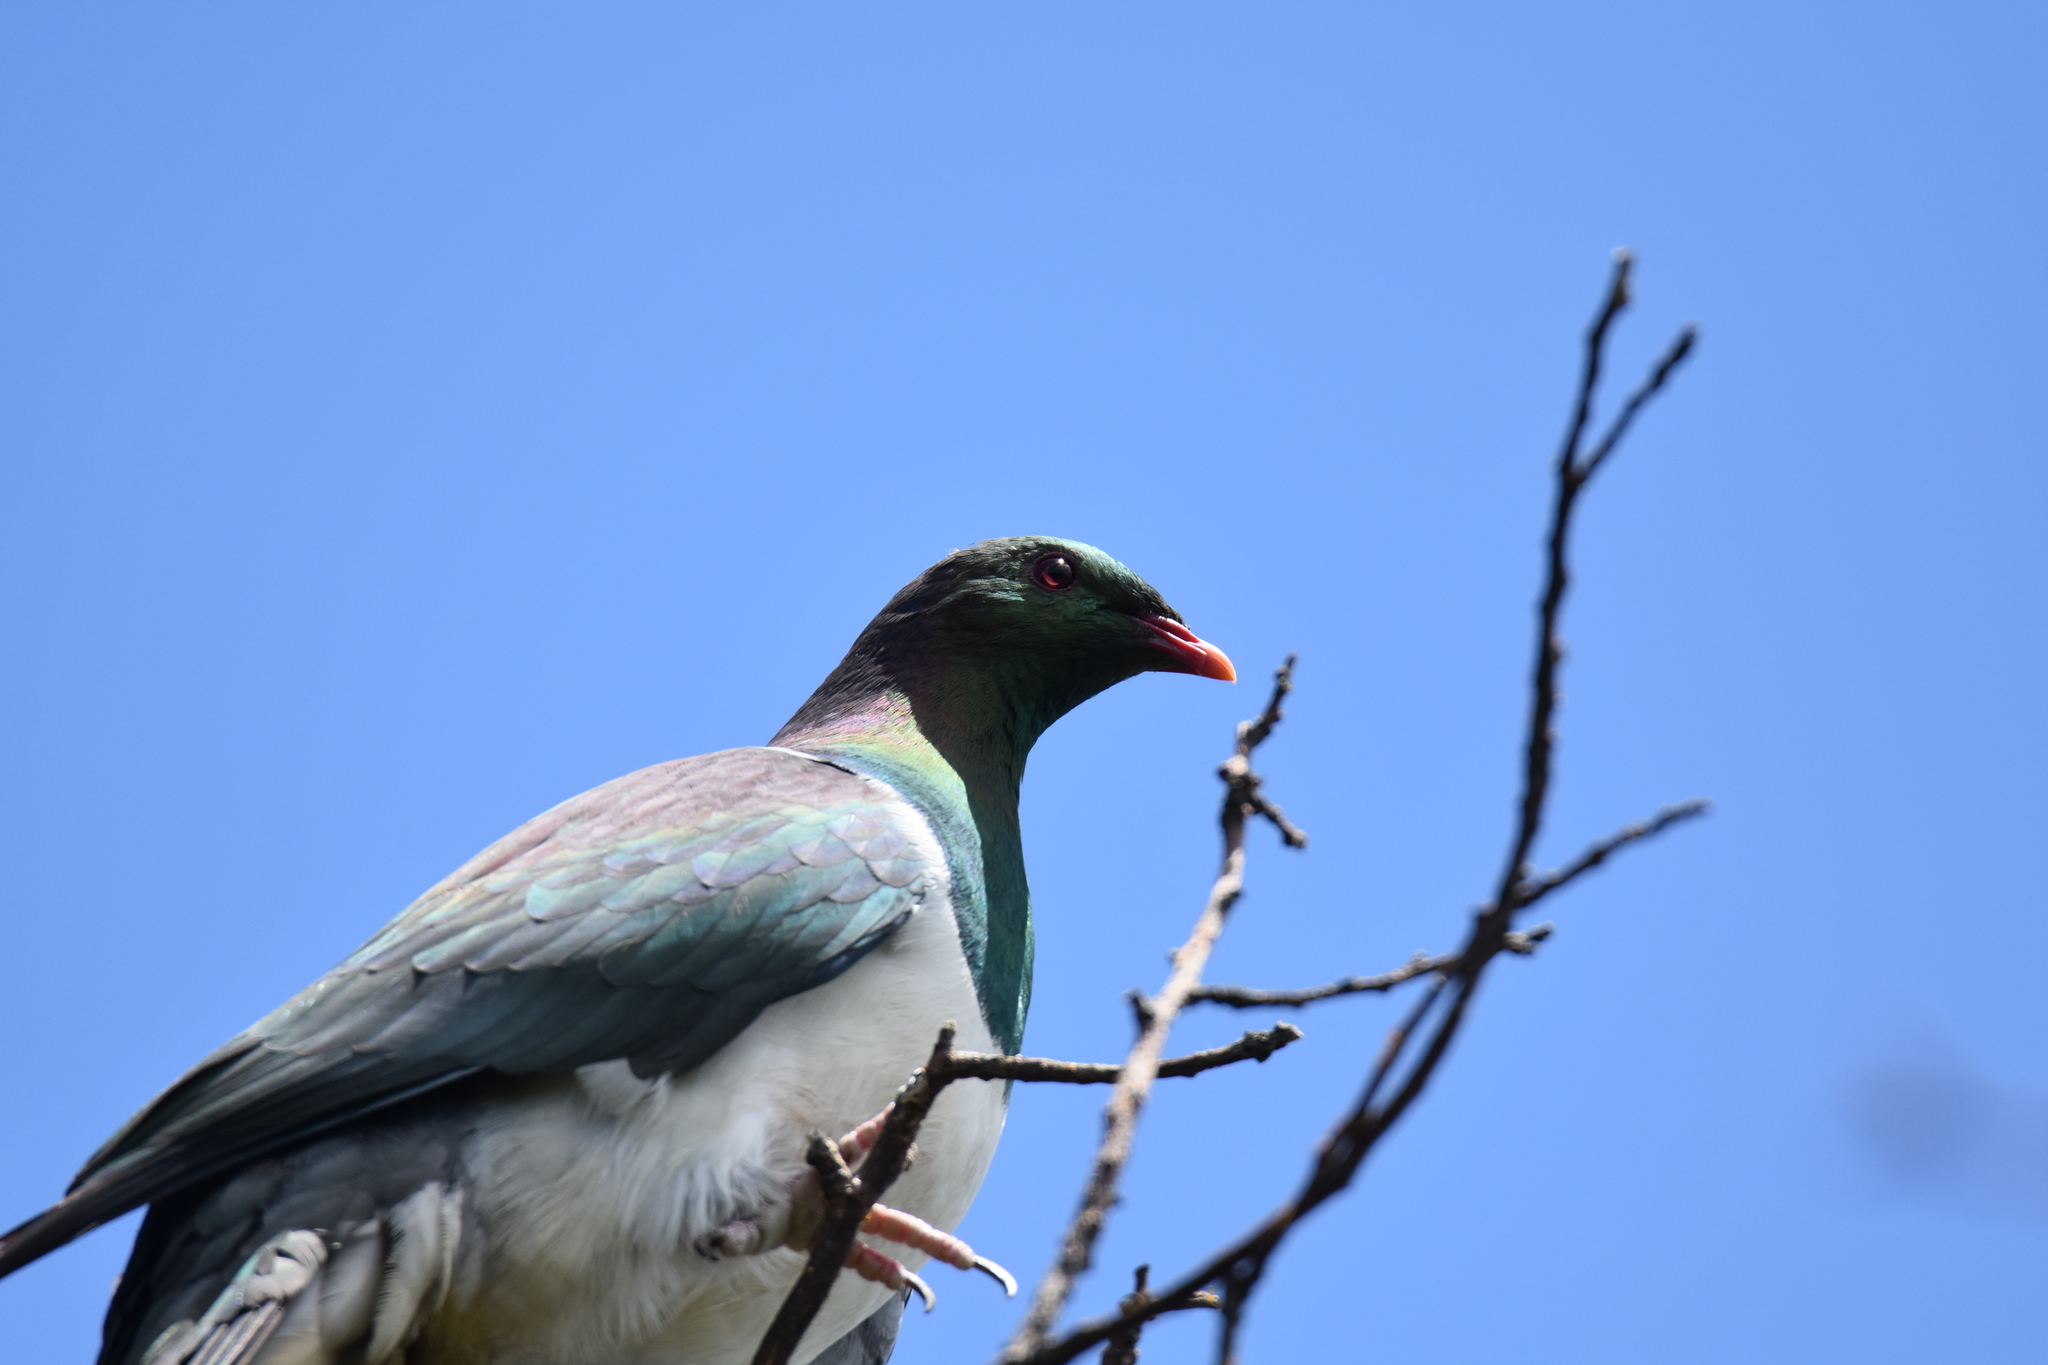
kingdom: Animalia
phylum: Chordata
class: Aves
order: Columbiformes
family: Columbidae
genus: Hemiphaga
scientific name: Hemiphaga novaeseelandiae
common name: New zealand pigeon
